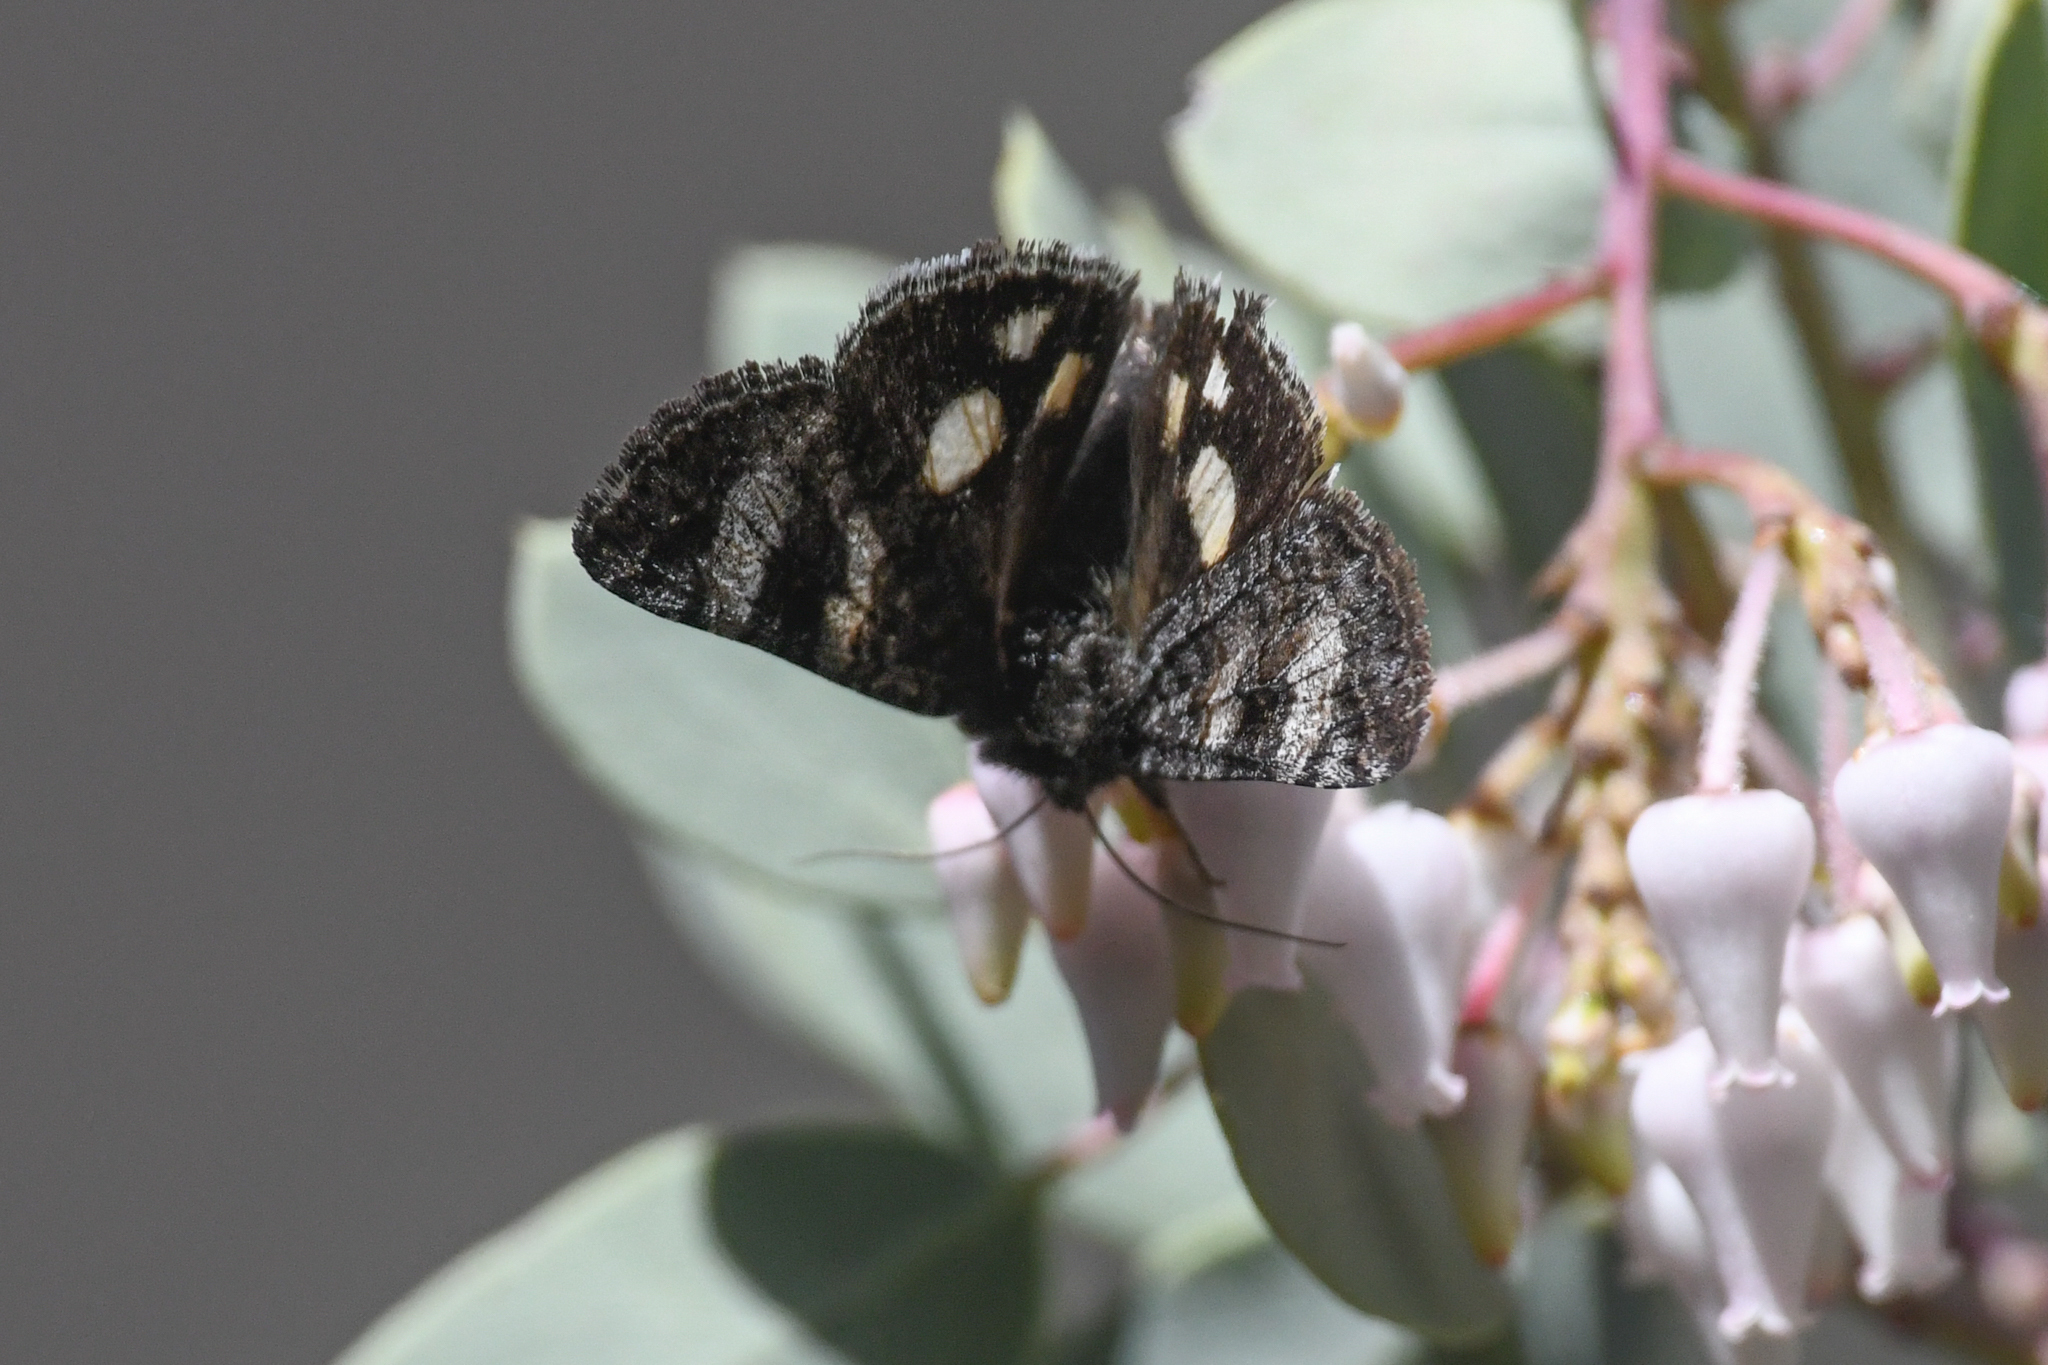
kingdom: Animalia
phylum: Arthropoda
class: Insecta
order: Lepidoptera
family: Erebidae
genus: Litocala
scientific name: Litocala sexsignata
